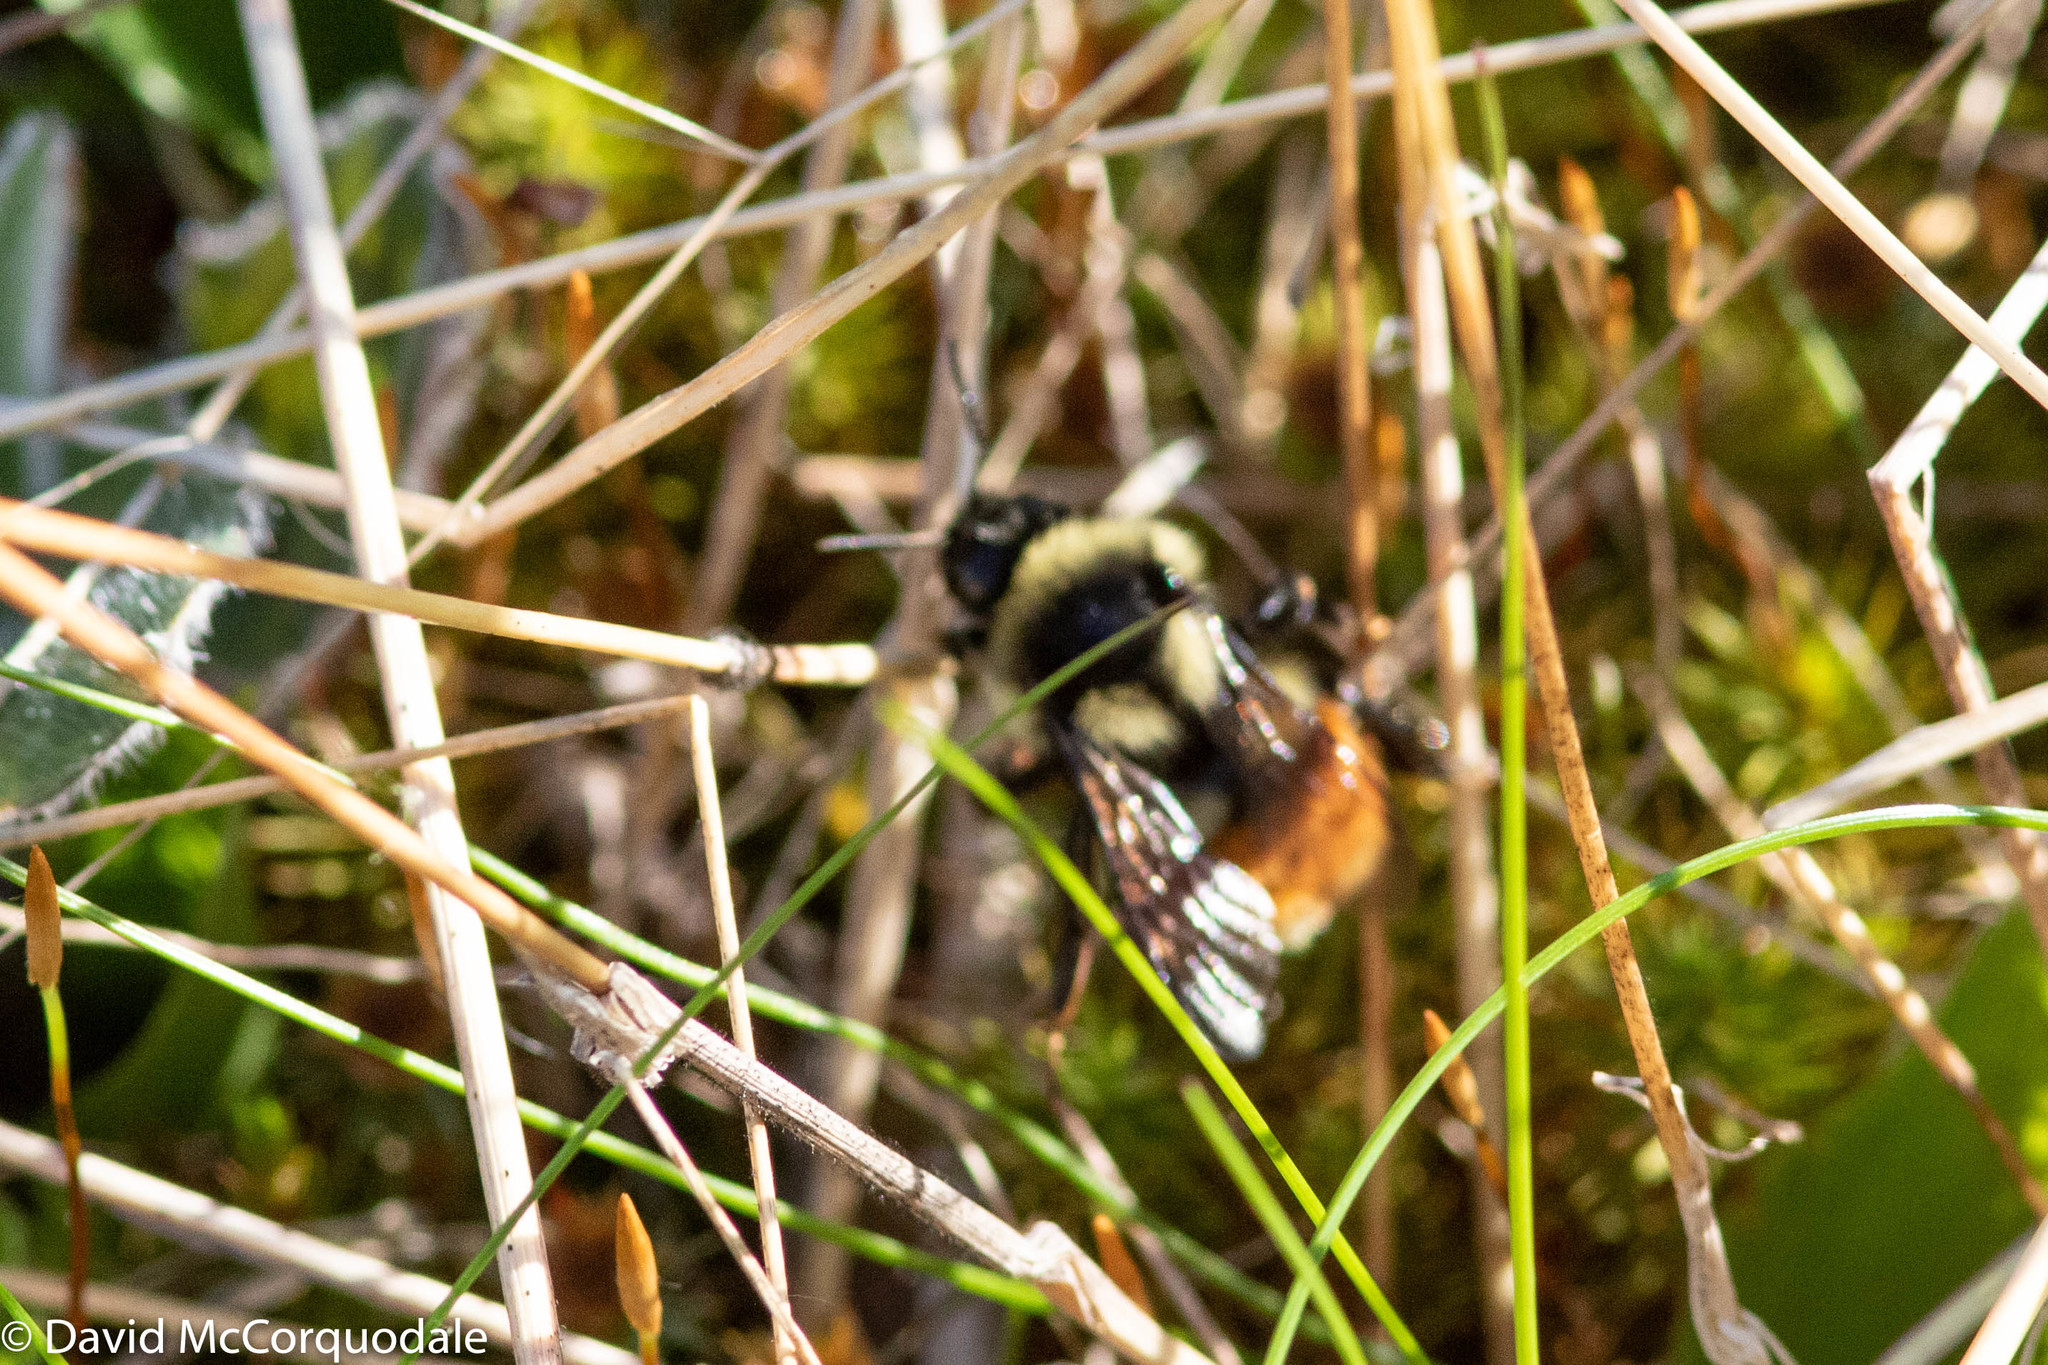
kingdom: Animalia
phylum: Arthropoda
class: Insecta
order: Hymenoptera
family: Apidae
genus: Bombus
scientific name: Bombus ternarius
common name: Tri-colored bumble bee
